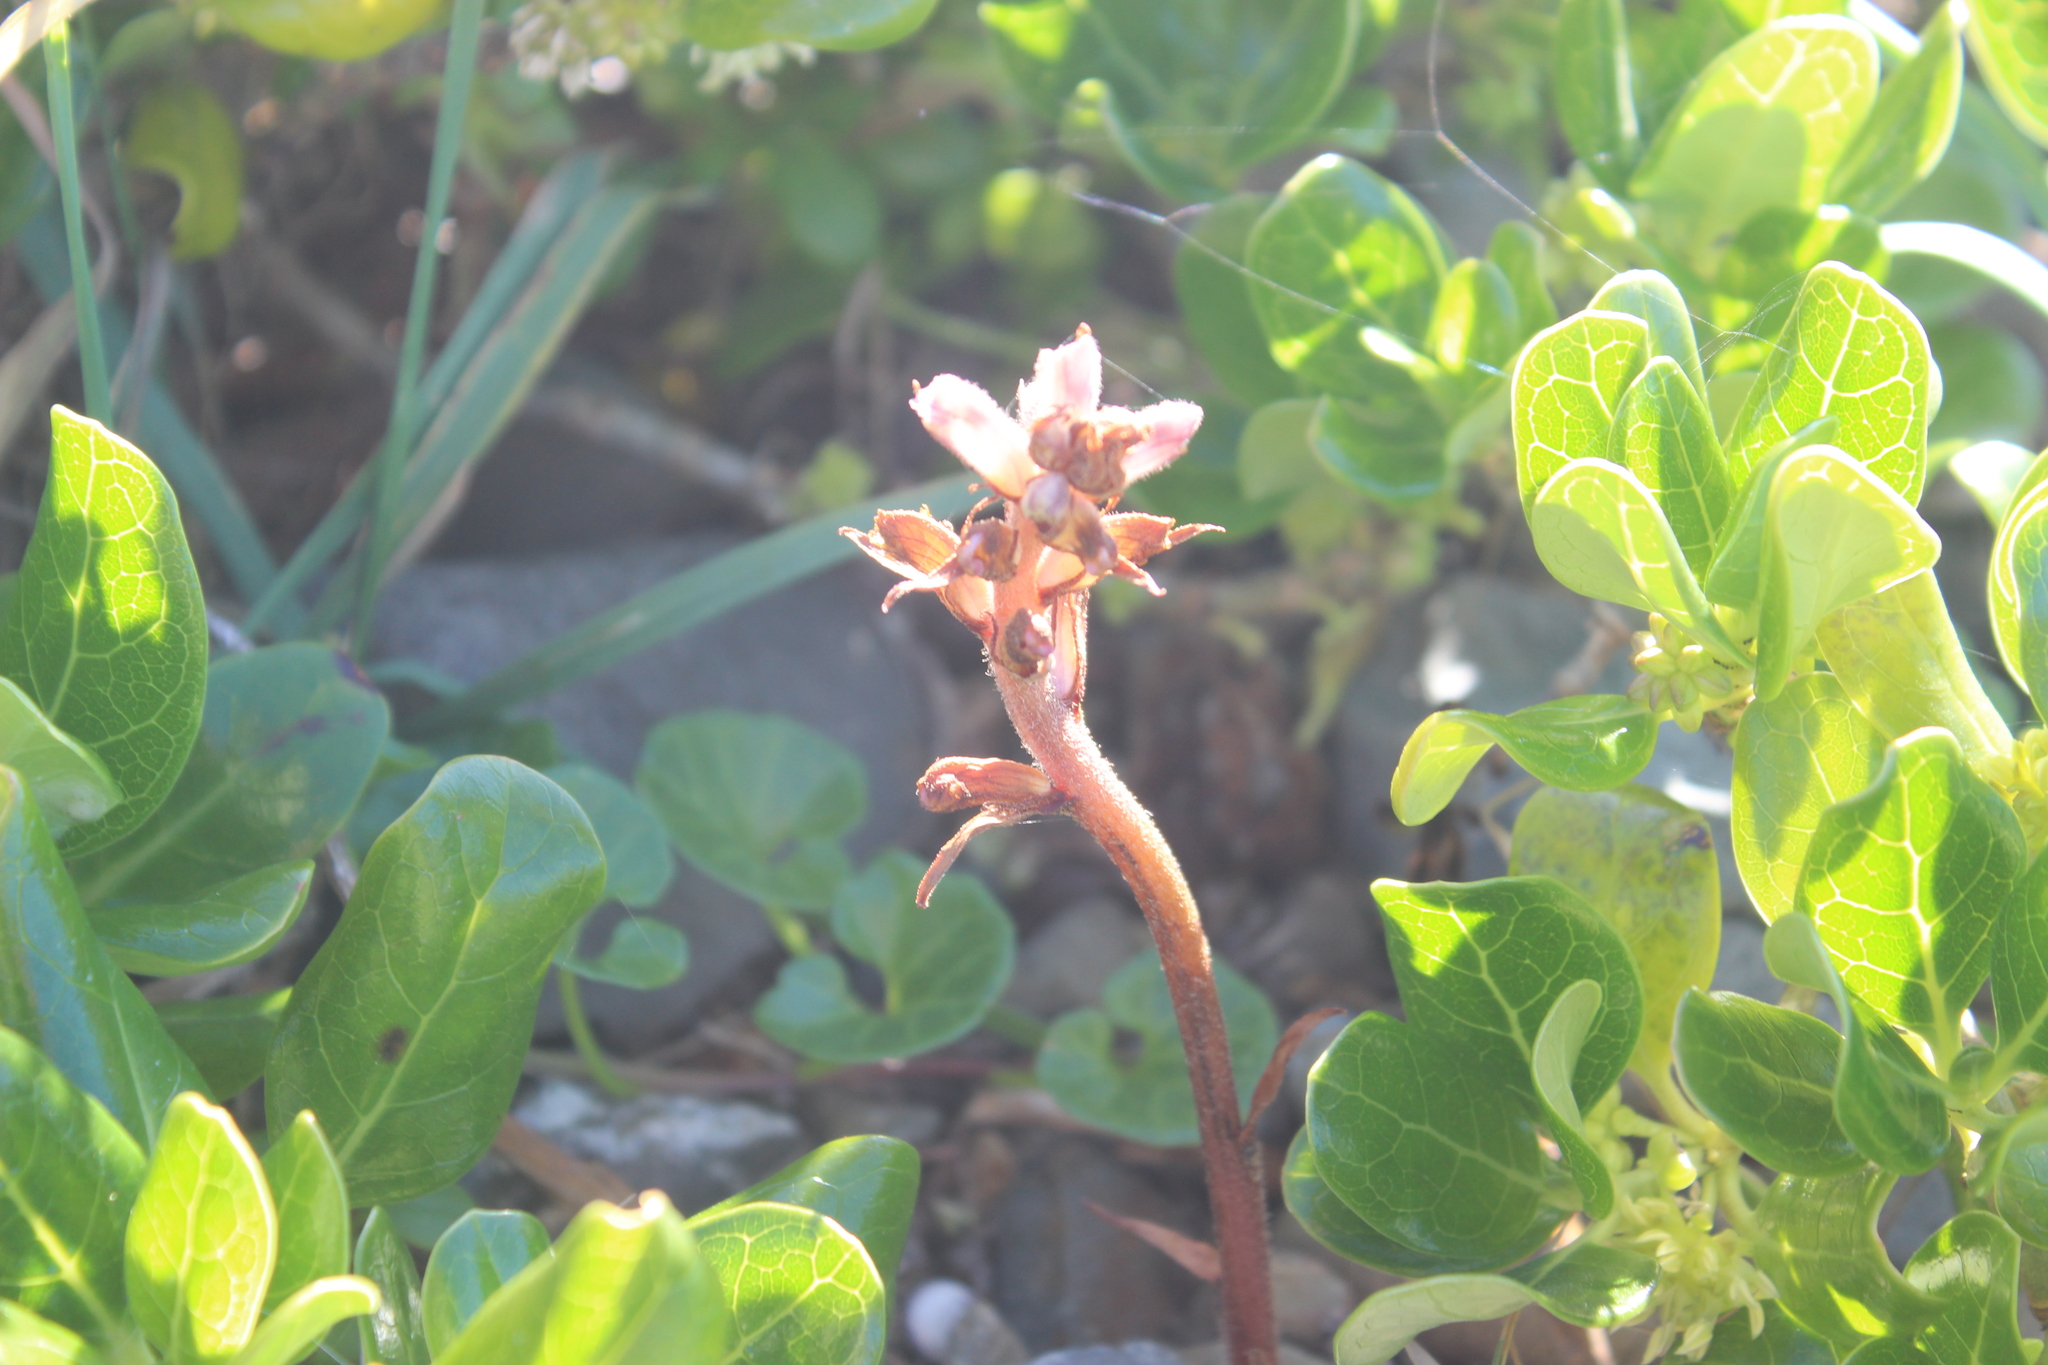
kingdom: Plantae
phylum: Tracheophyta
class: Magnoliopsida
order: Lamiales
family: Orobanchaceae
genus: Orobanche
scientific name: Orobanche minor
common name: Common broomrape
